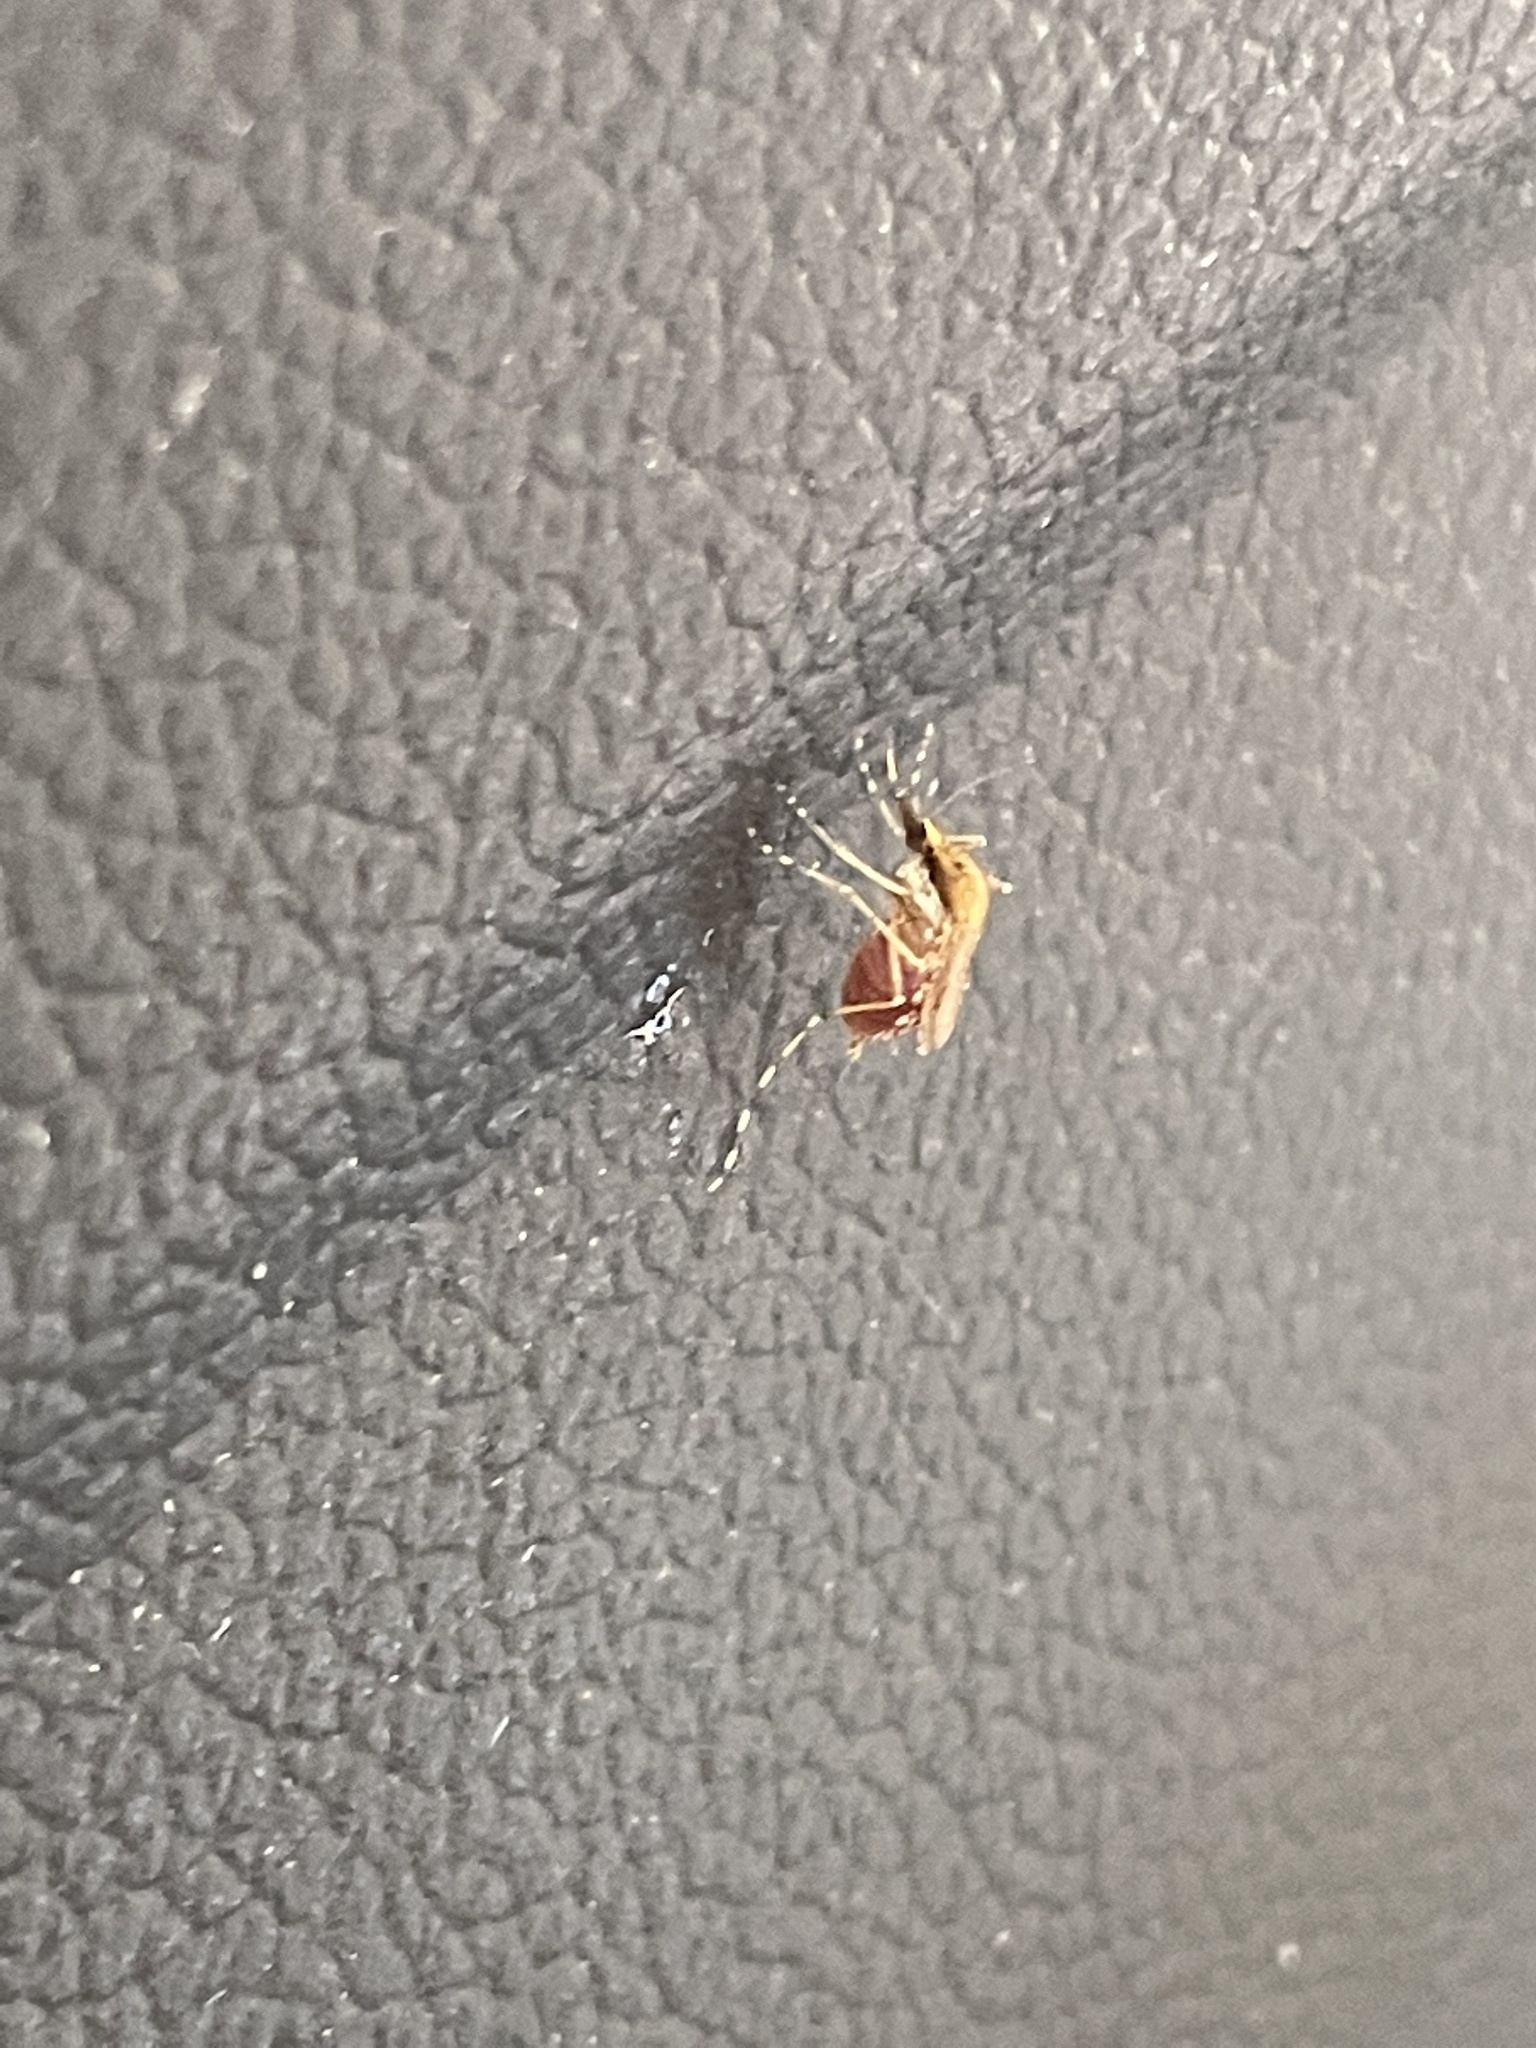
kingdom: Animalia
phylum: Arthropoda
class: Insecta
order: Diptera
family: Culicidae
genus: Aedes
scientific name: Aedes sollicitans
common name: Saltmarsh mosquito
